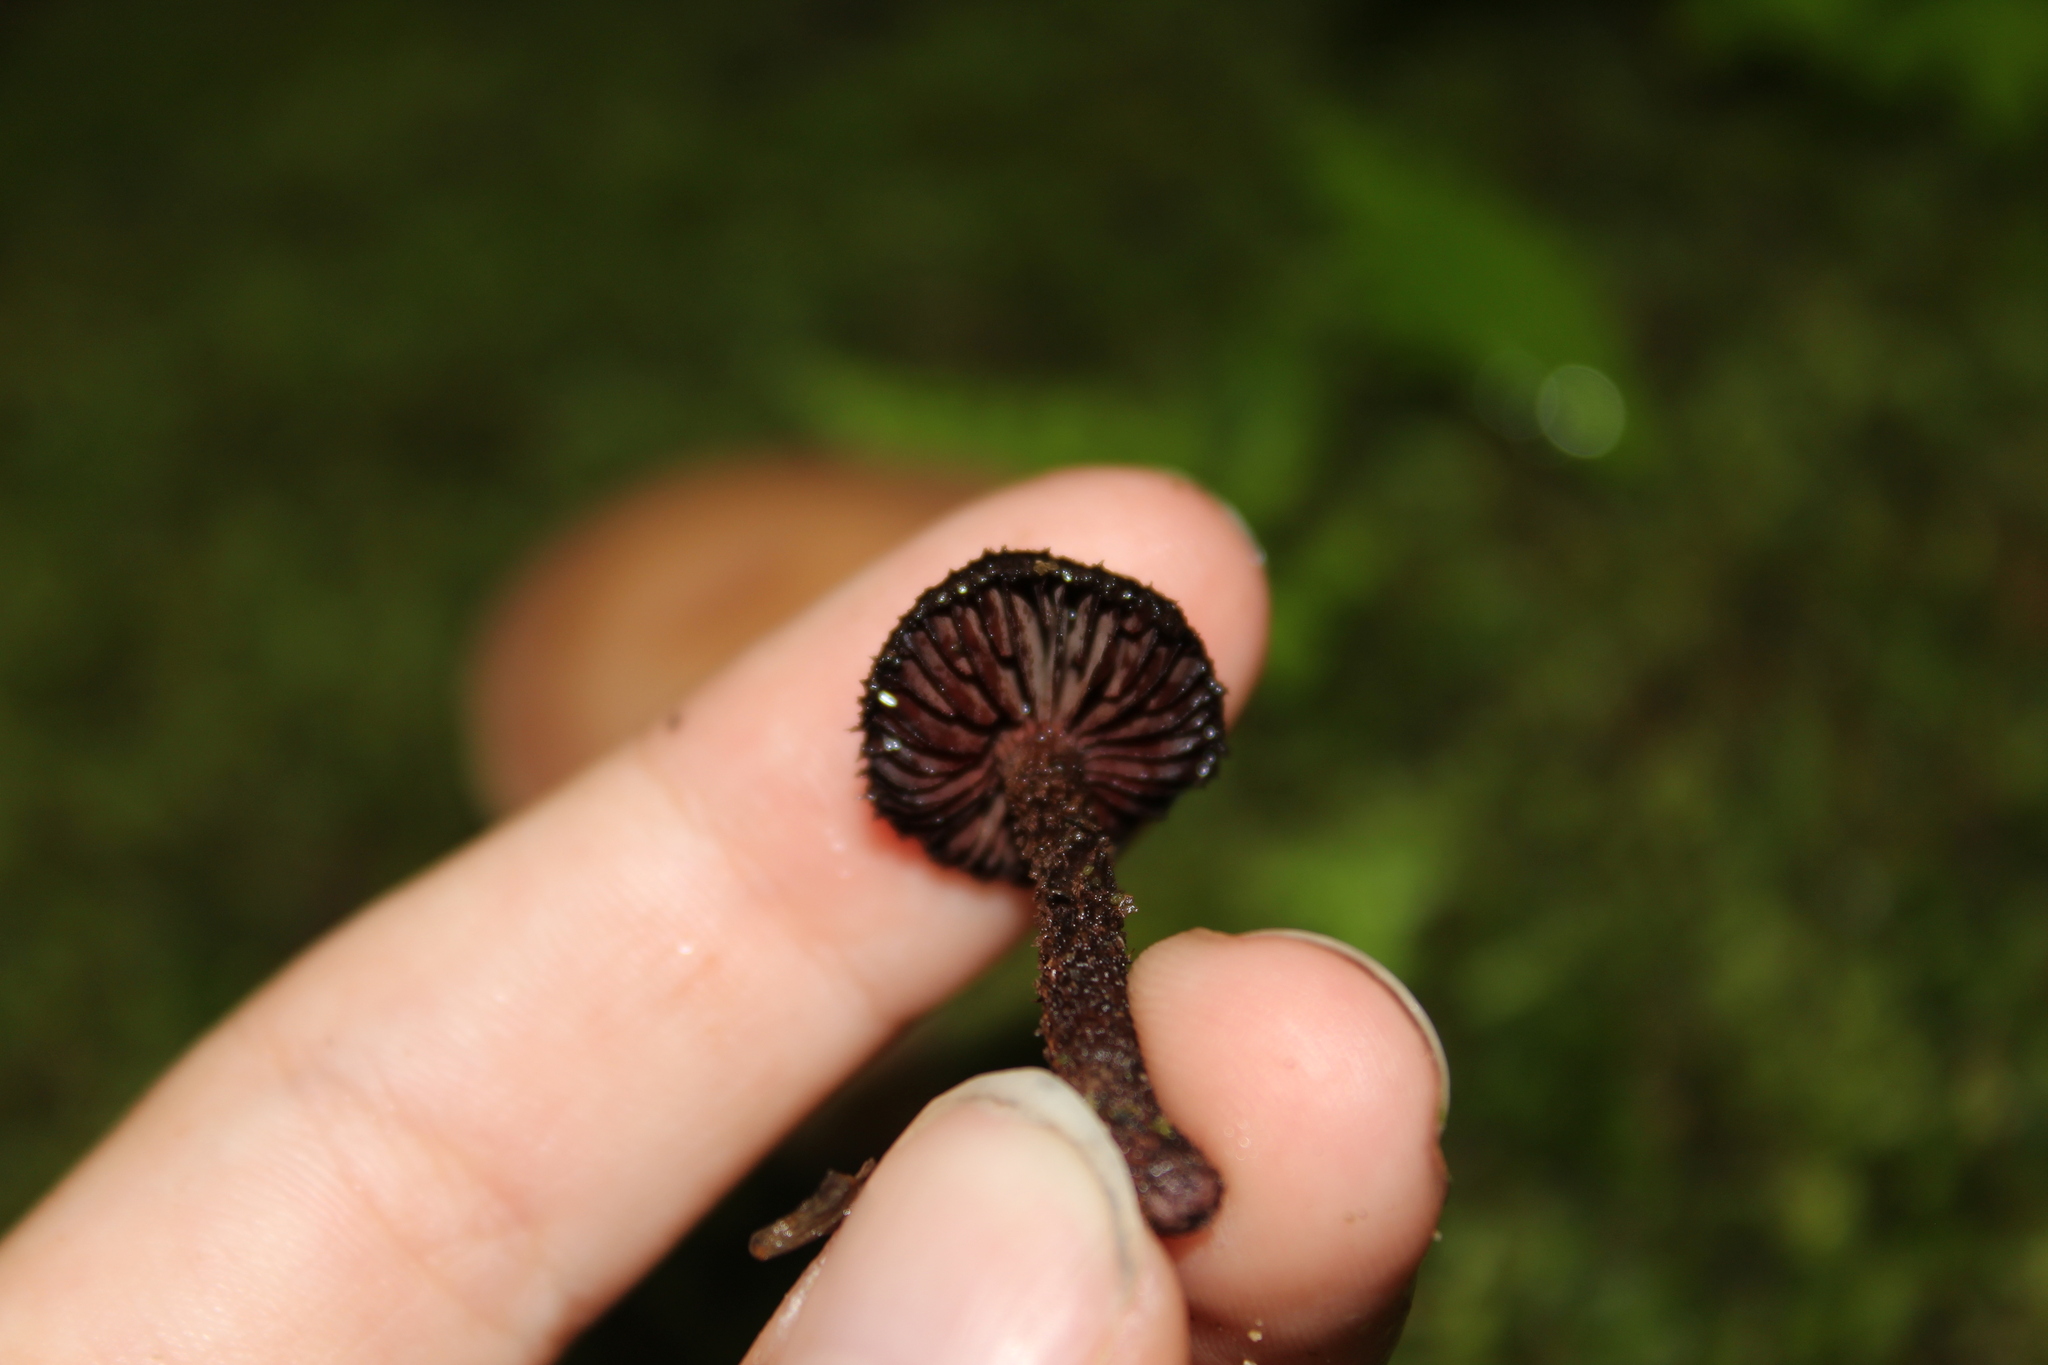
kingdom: Fungi
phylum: Basidiomycota
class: Agaricomycetes
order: Agaricales
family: Inocybaceae
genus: Inocybe
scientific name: Inocybe tahquamenonensis
